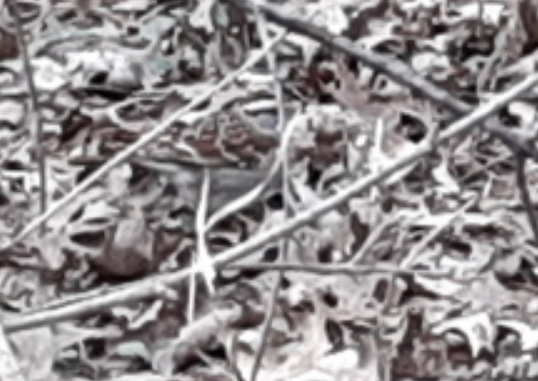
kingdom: Animalia
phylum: Chordata
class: Aves
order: Passeriformes
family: Passerellidae
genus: Zonotrichia
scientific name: Zonotrichia albicollis
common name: White-throated sparrow
